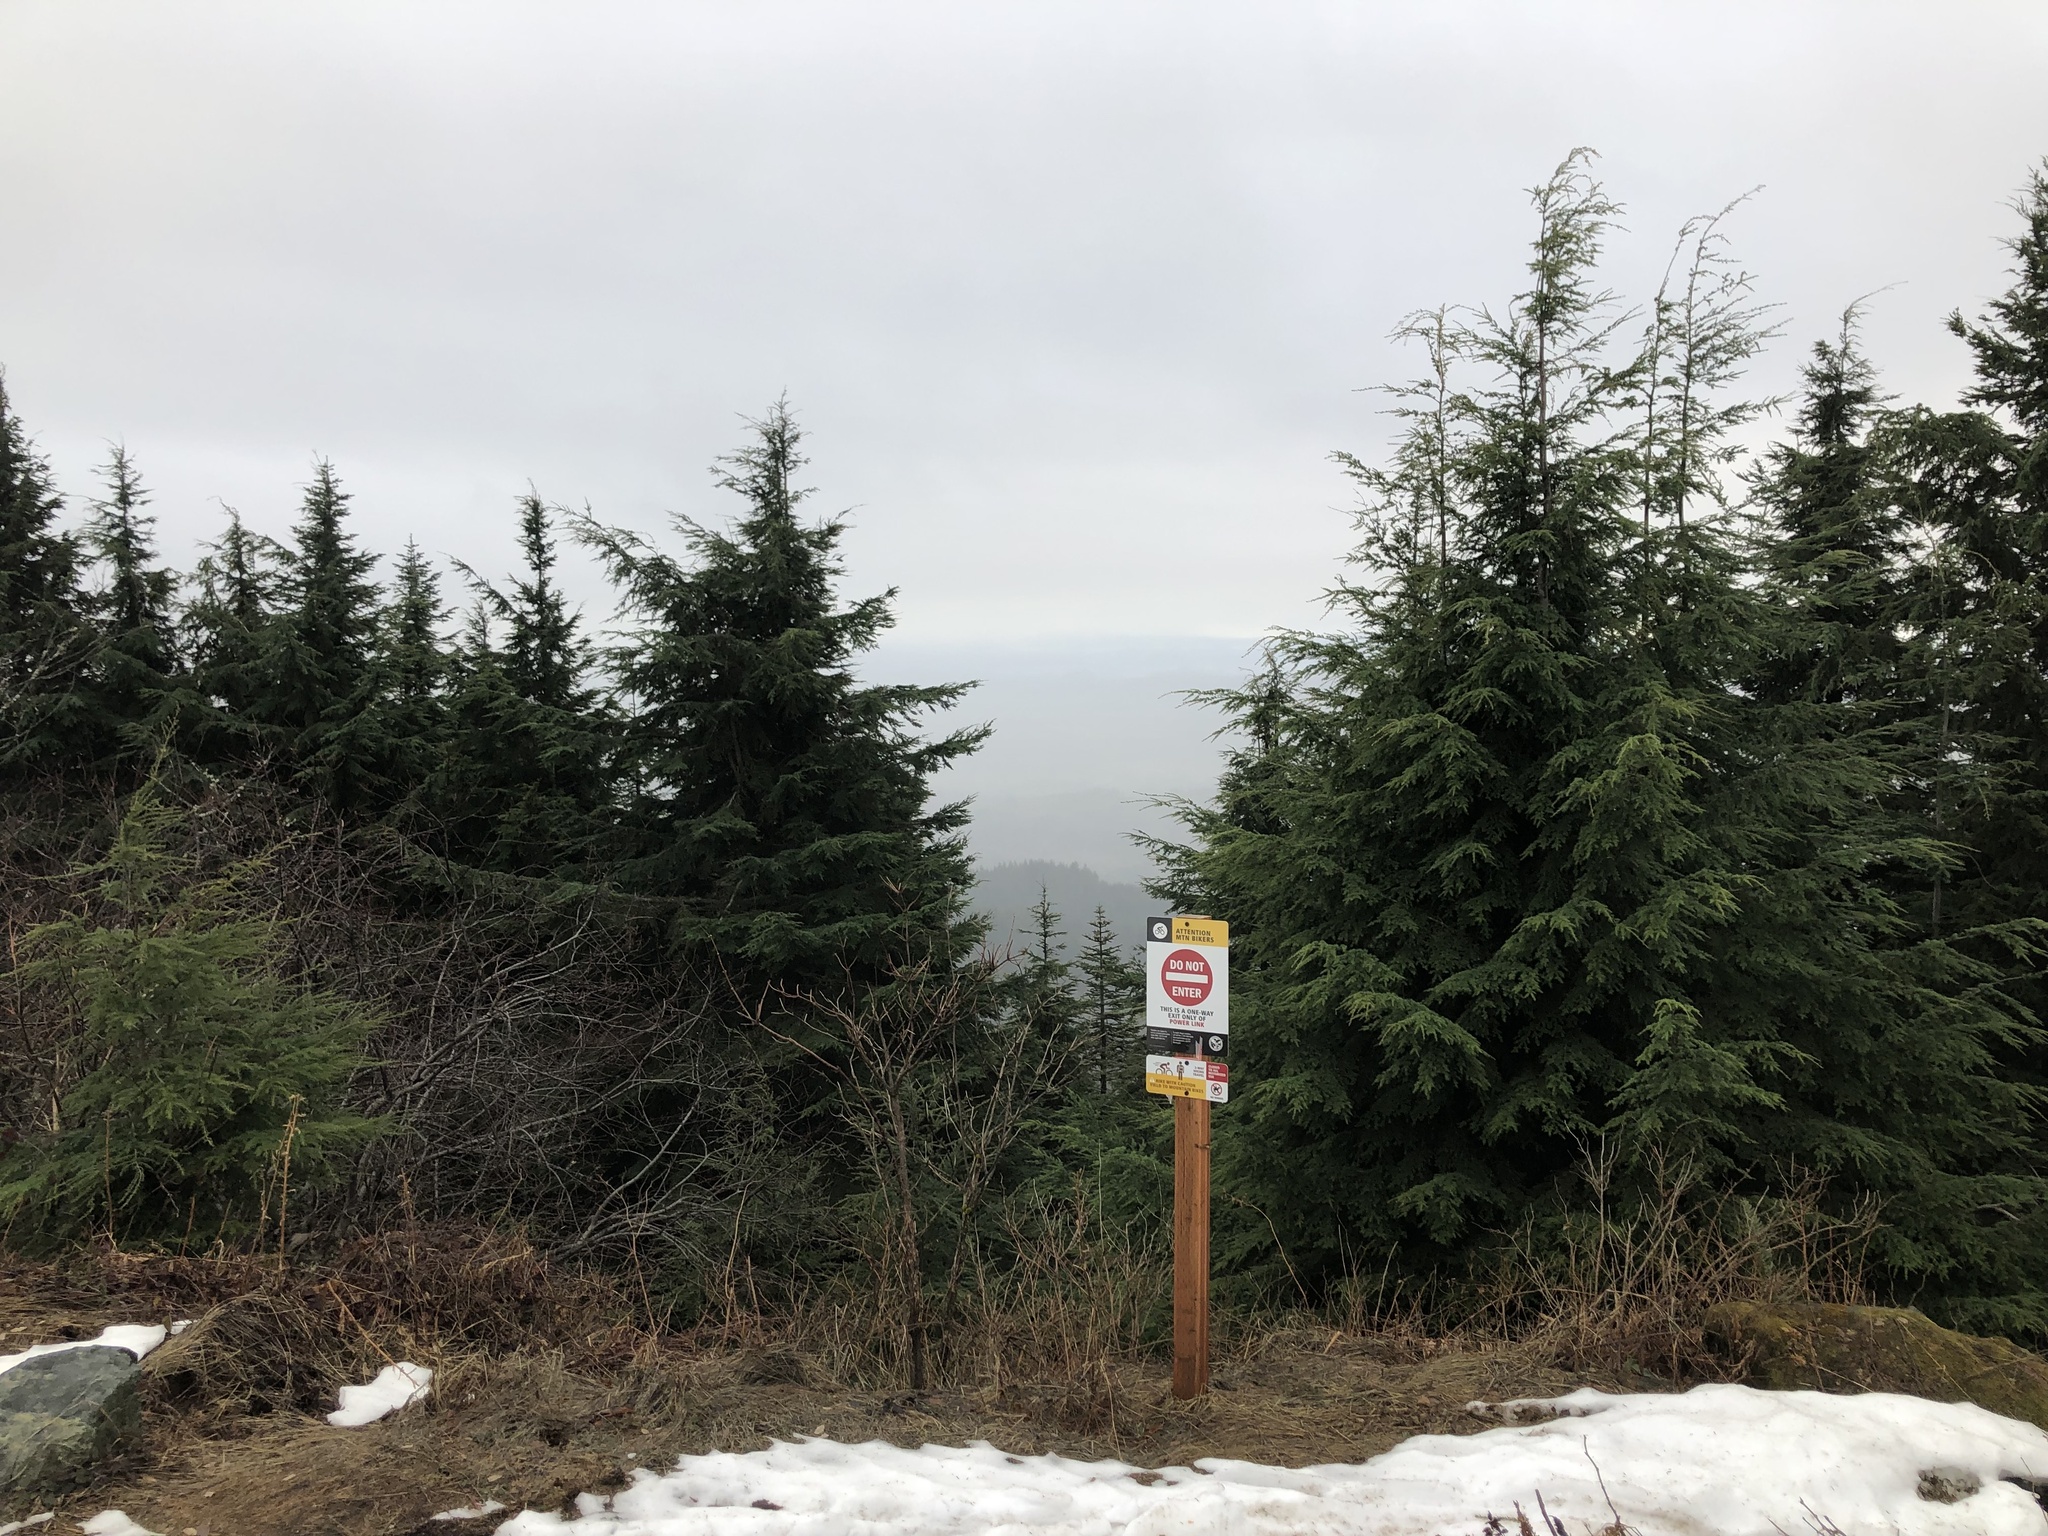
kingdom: Plantae
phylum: Tracheophyta
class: Pinopsida
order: Pinales
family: Pinaceae
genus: Tsuga
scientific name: Tsuga heterophylla
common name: Western hemlock
